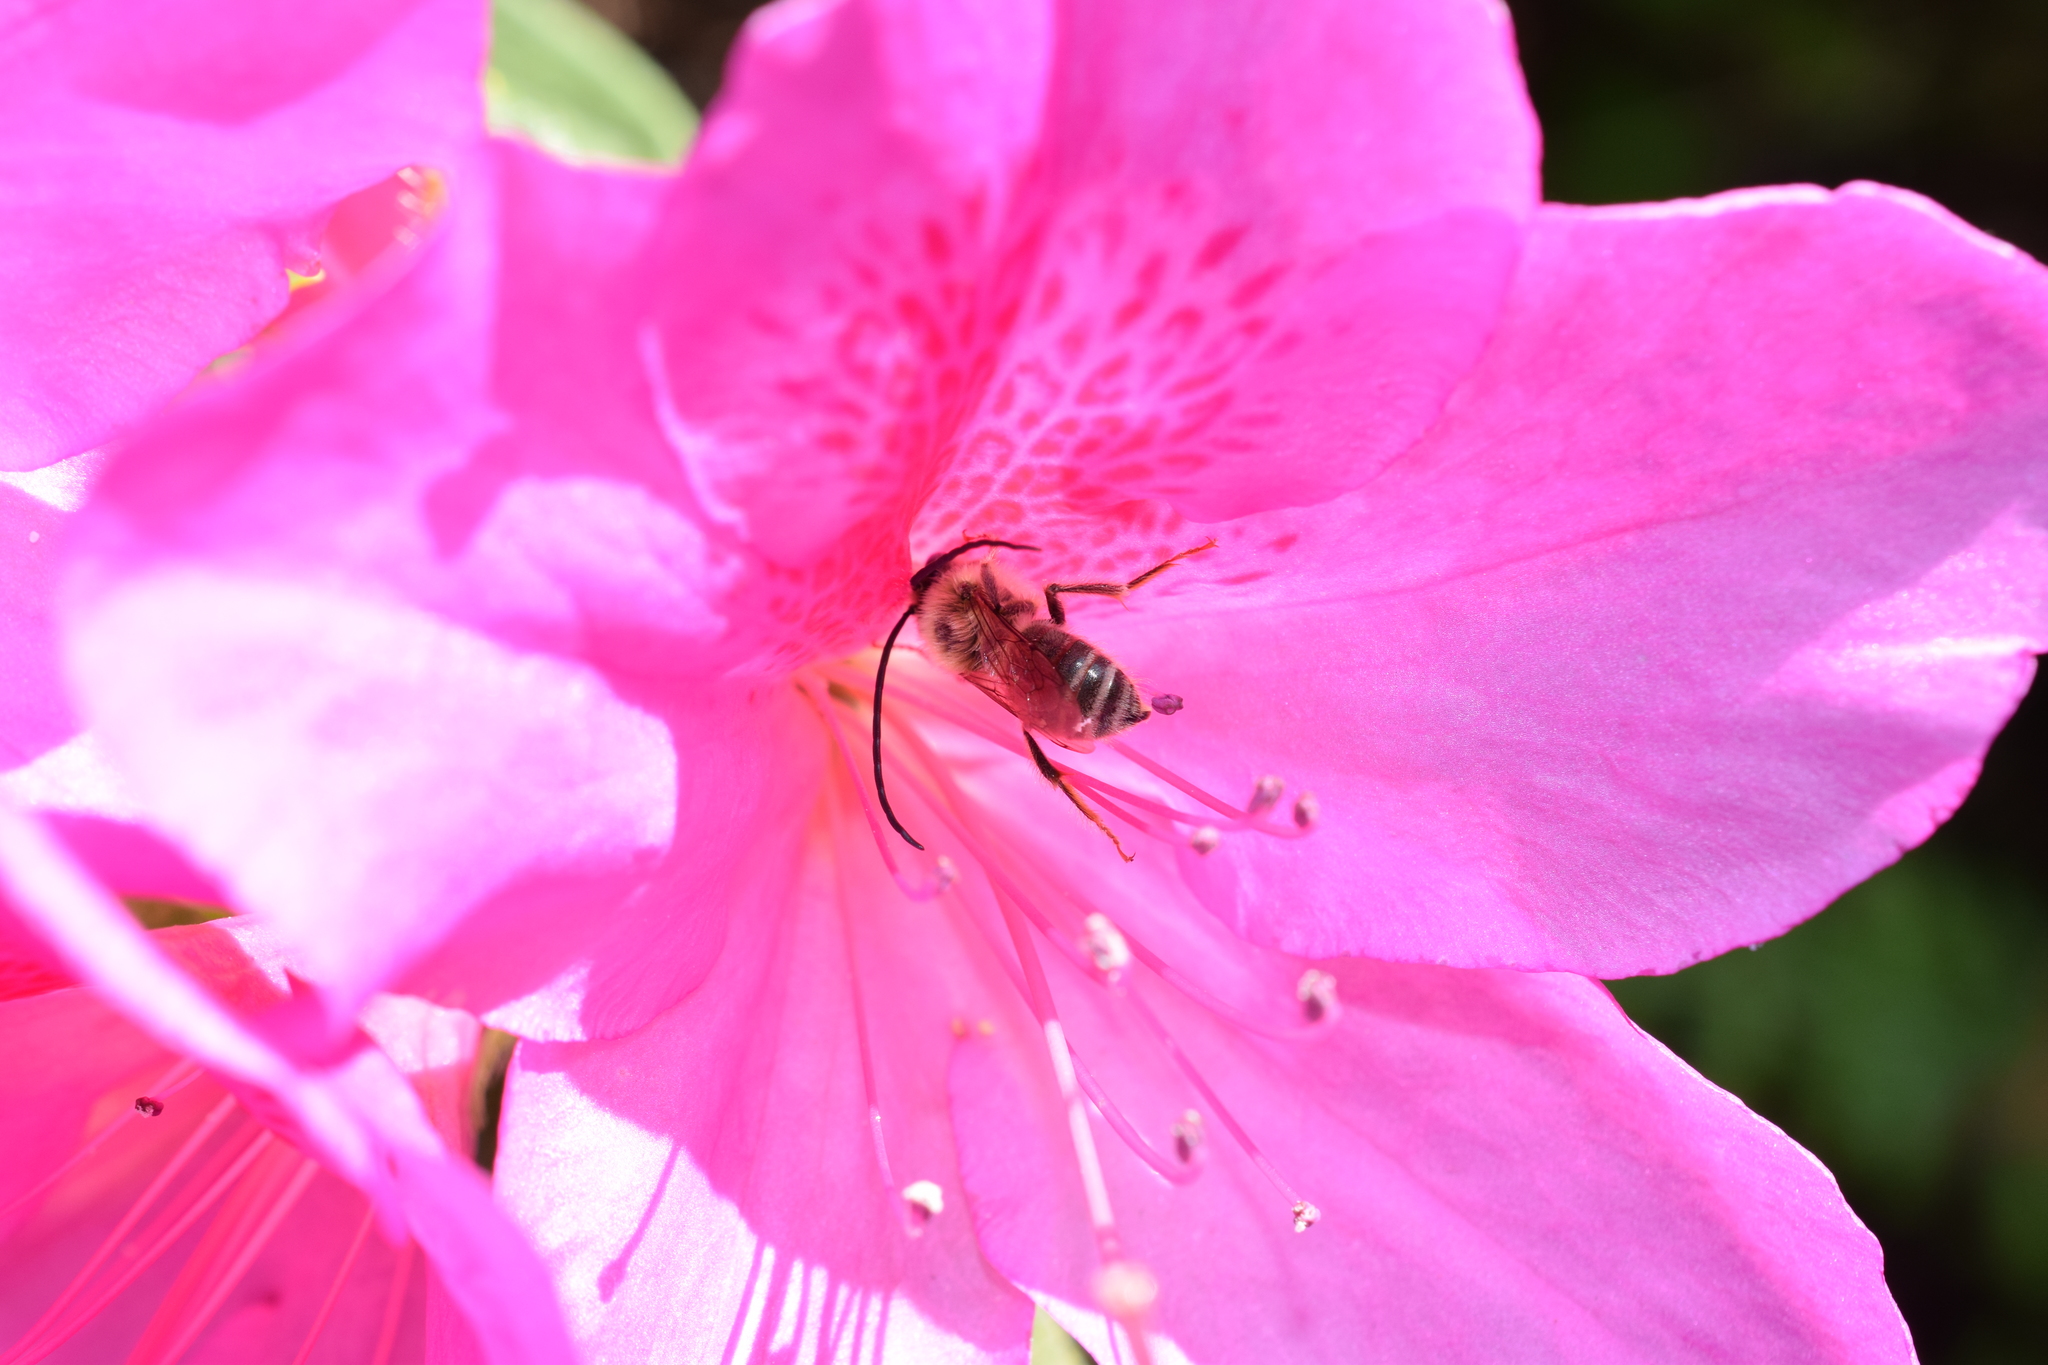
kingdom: Animalia
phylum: Arthropoda
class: Insecta
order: Hymenoptera
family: Apidae
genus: Eucera
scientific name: Eucera nipponensis
